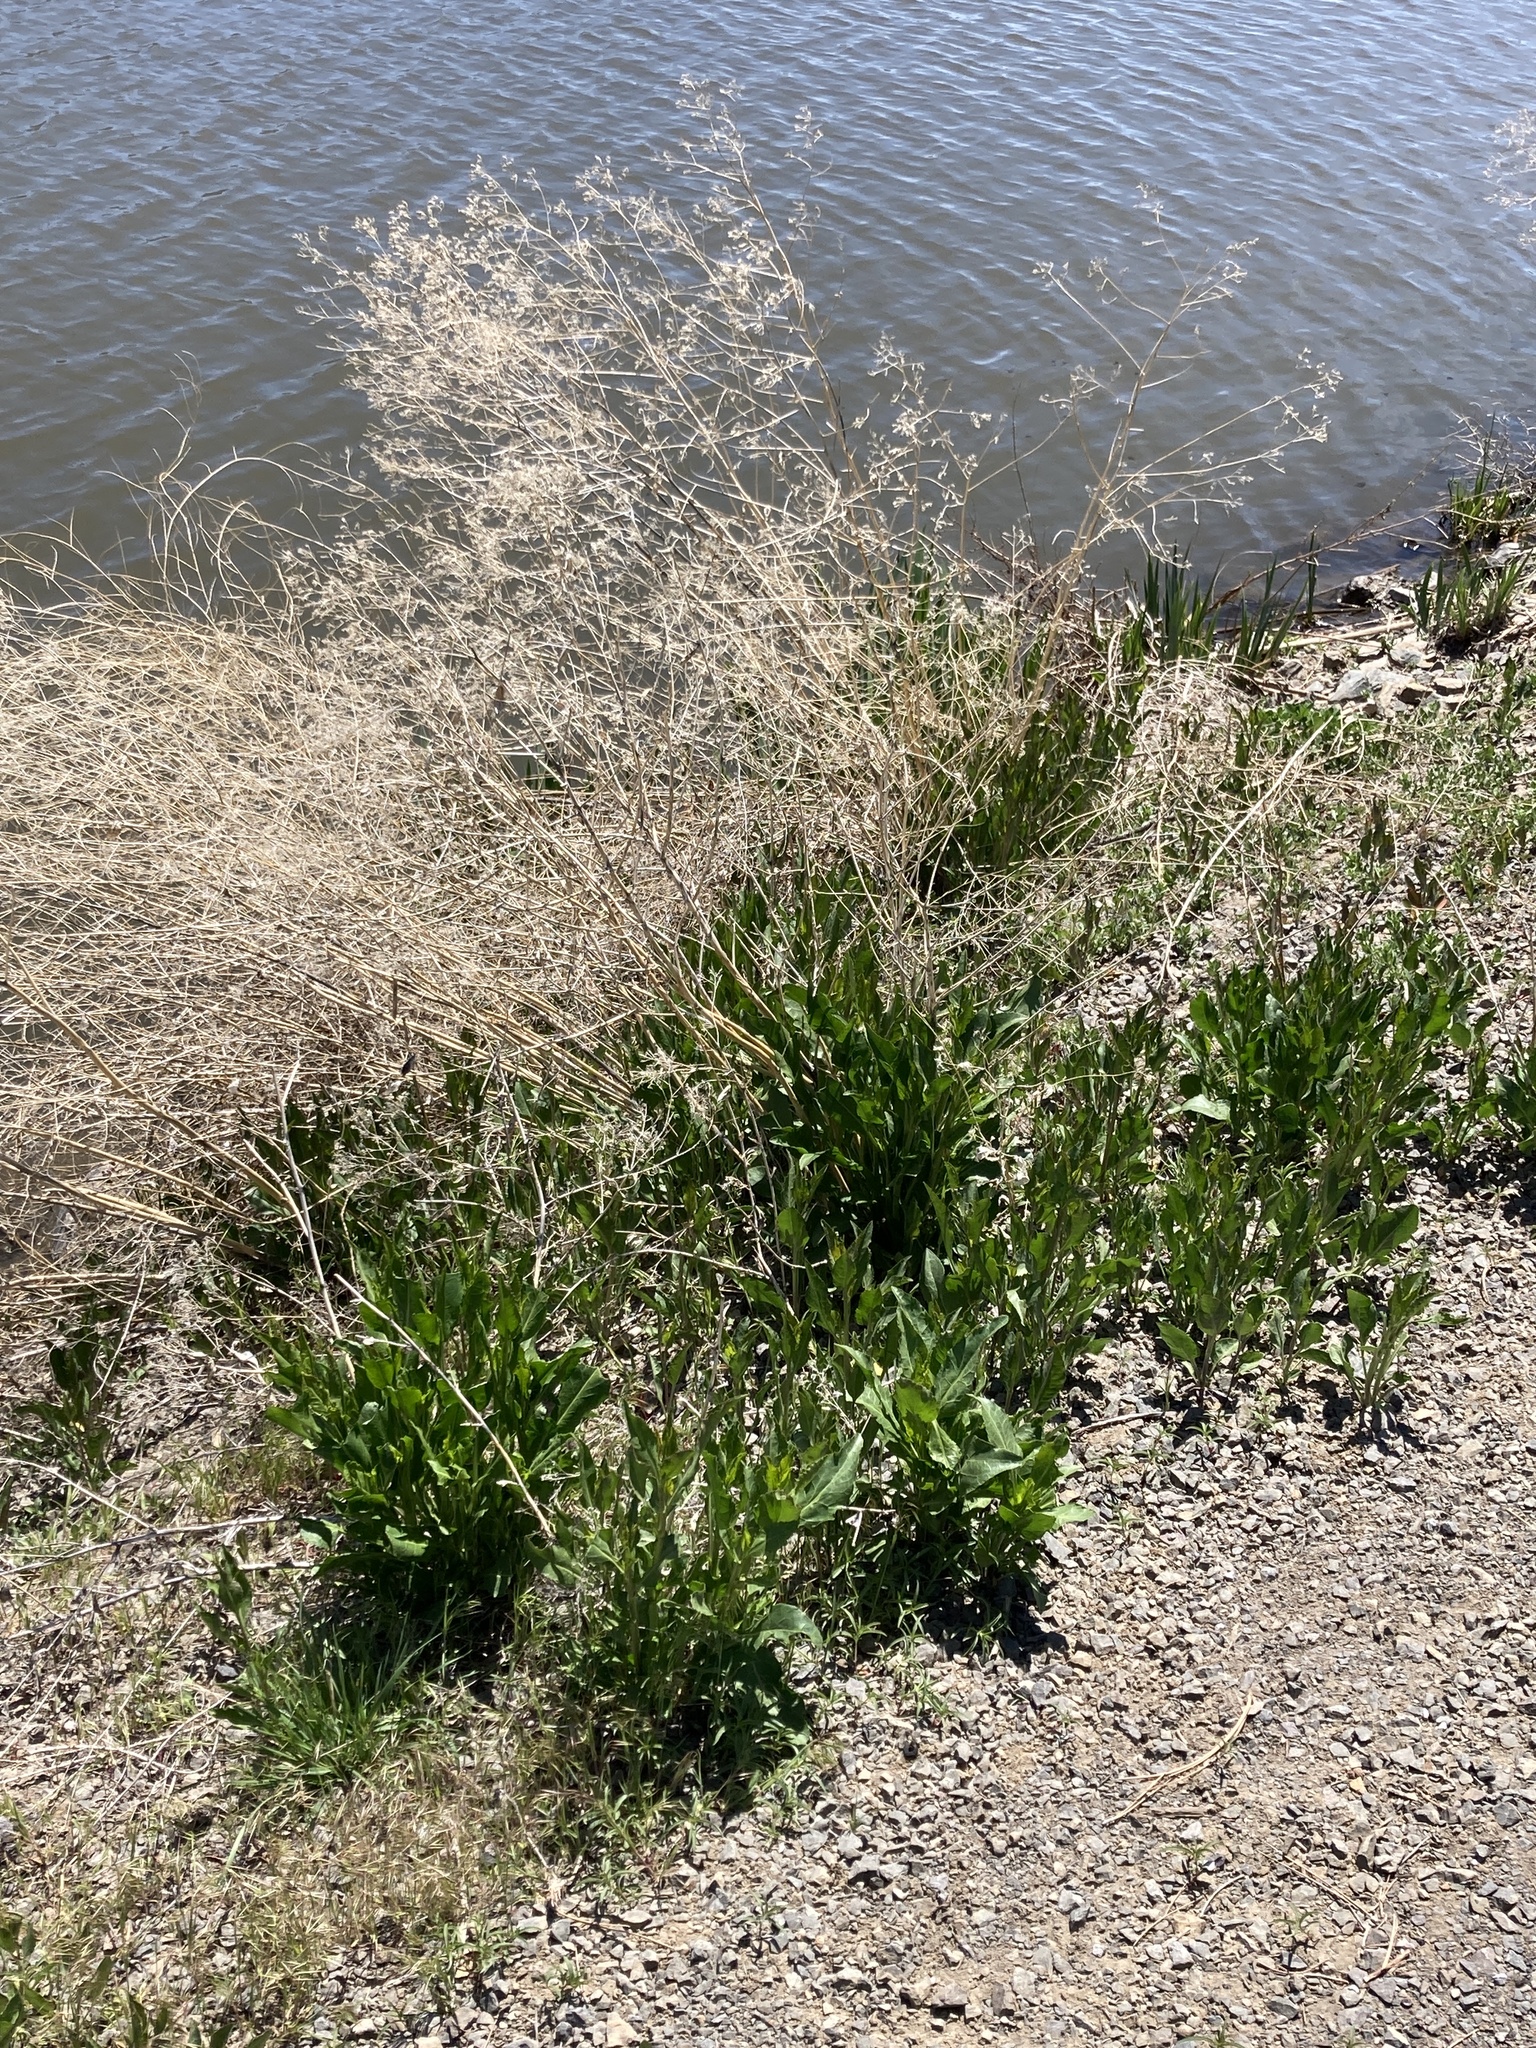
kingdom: Plantae
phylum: Tracheophyta
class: Magnoliopsida
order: Brassicales
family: Brassicaceae
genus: Lepidium
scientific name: Lepidium latifolium
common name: Dittander
